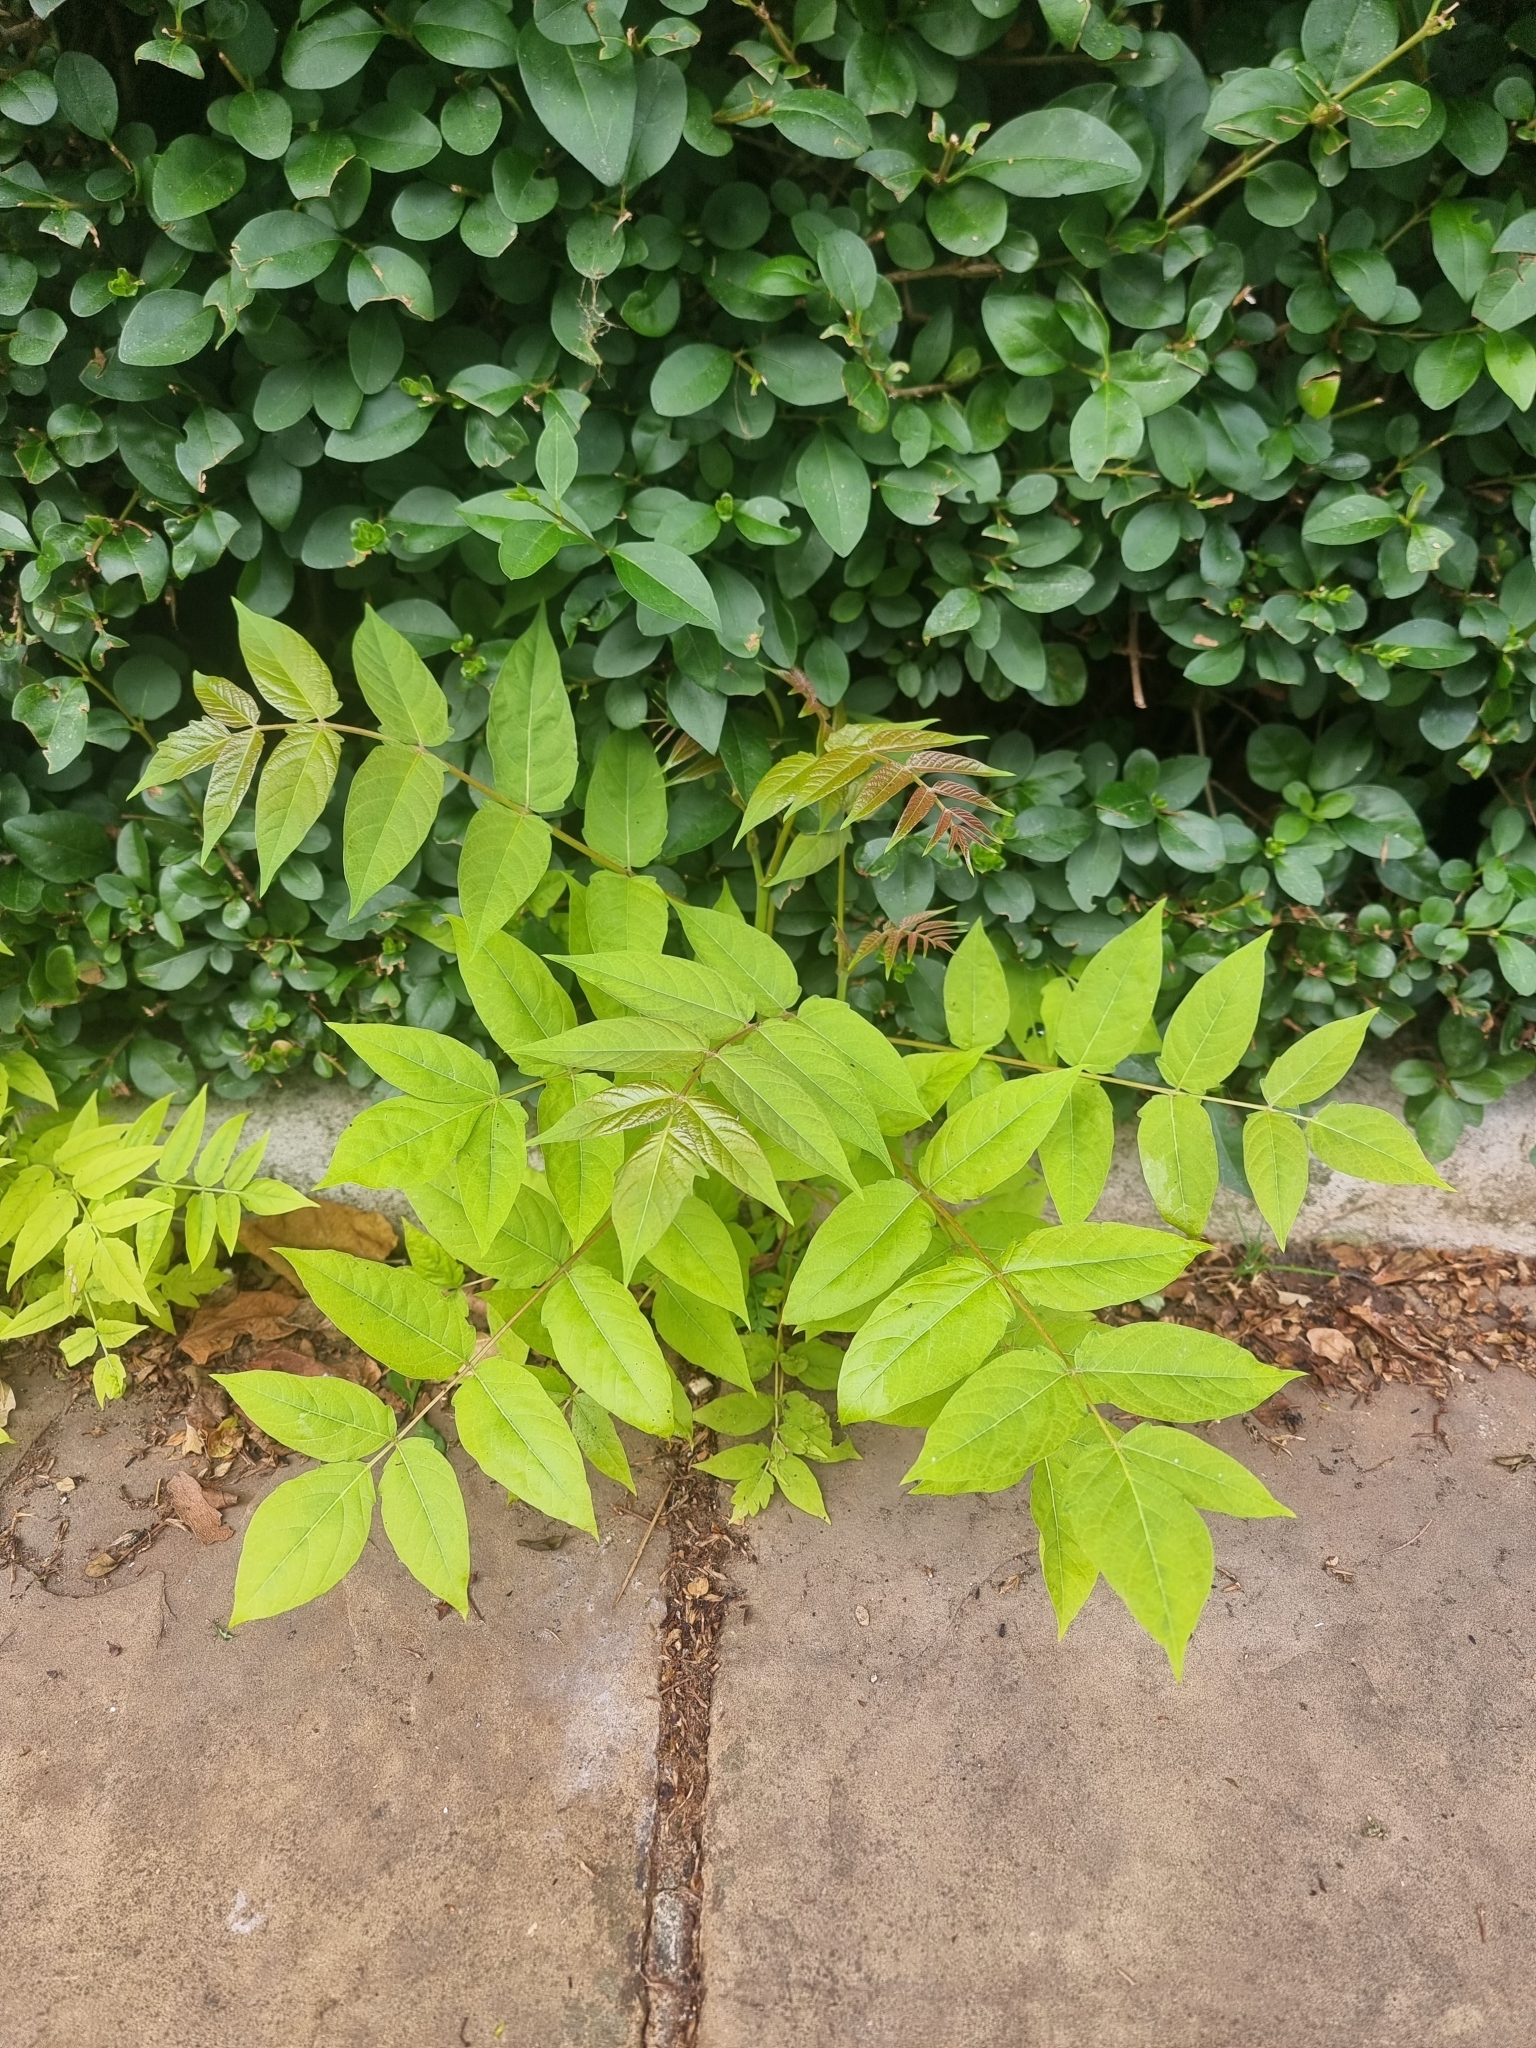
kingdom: Plantae
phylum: Tracheophyta
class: Magnoliopsida
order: Sapindales
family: Simaroubaceae
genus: Ailanthus
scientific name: Ailanthus altissima
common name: Tree-of-heaven
